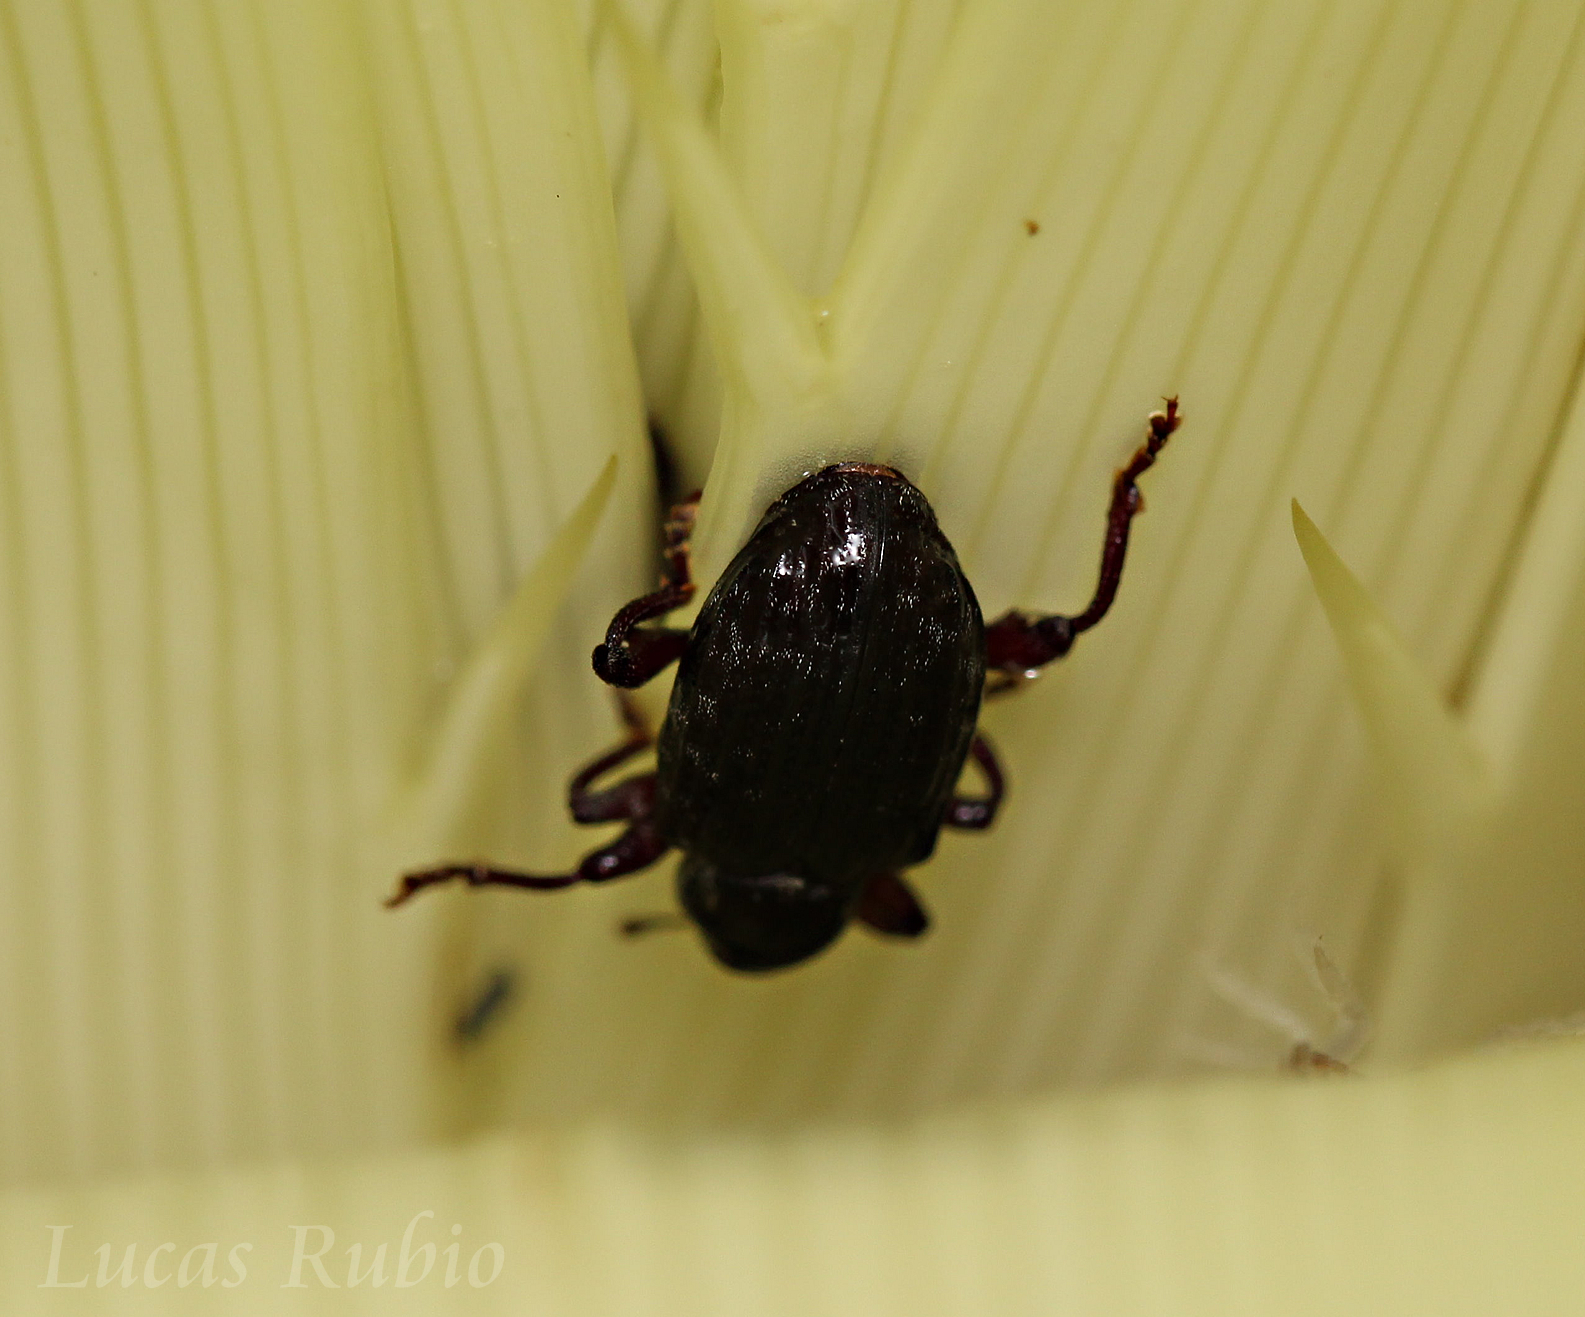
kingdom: Animalia
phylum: Arthropoda
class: Insecta
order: Coleoptera
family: Curculionidae
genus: Conotrachelus
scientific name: Conotrachelus striatus
